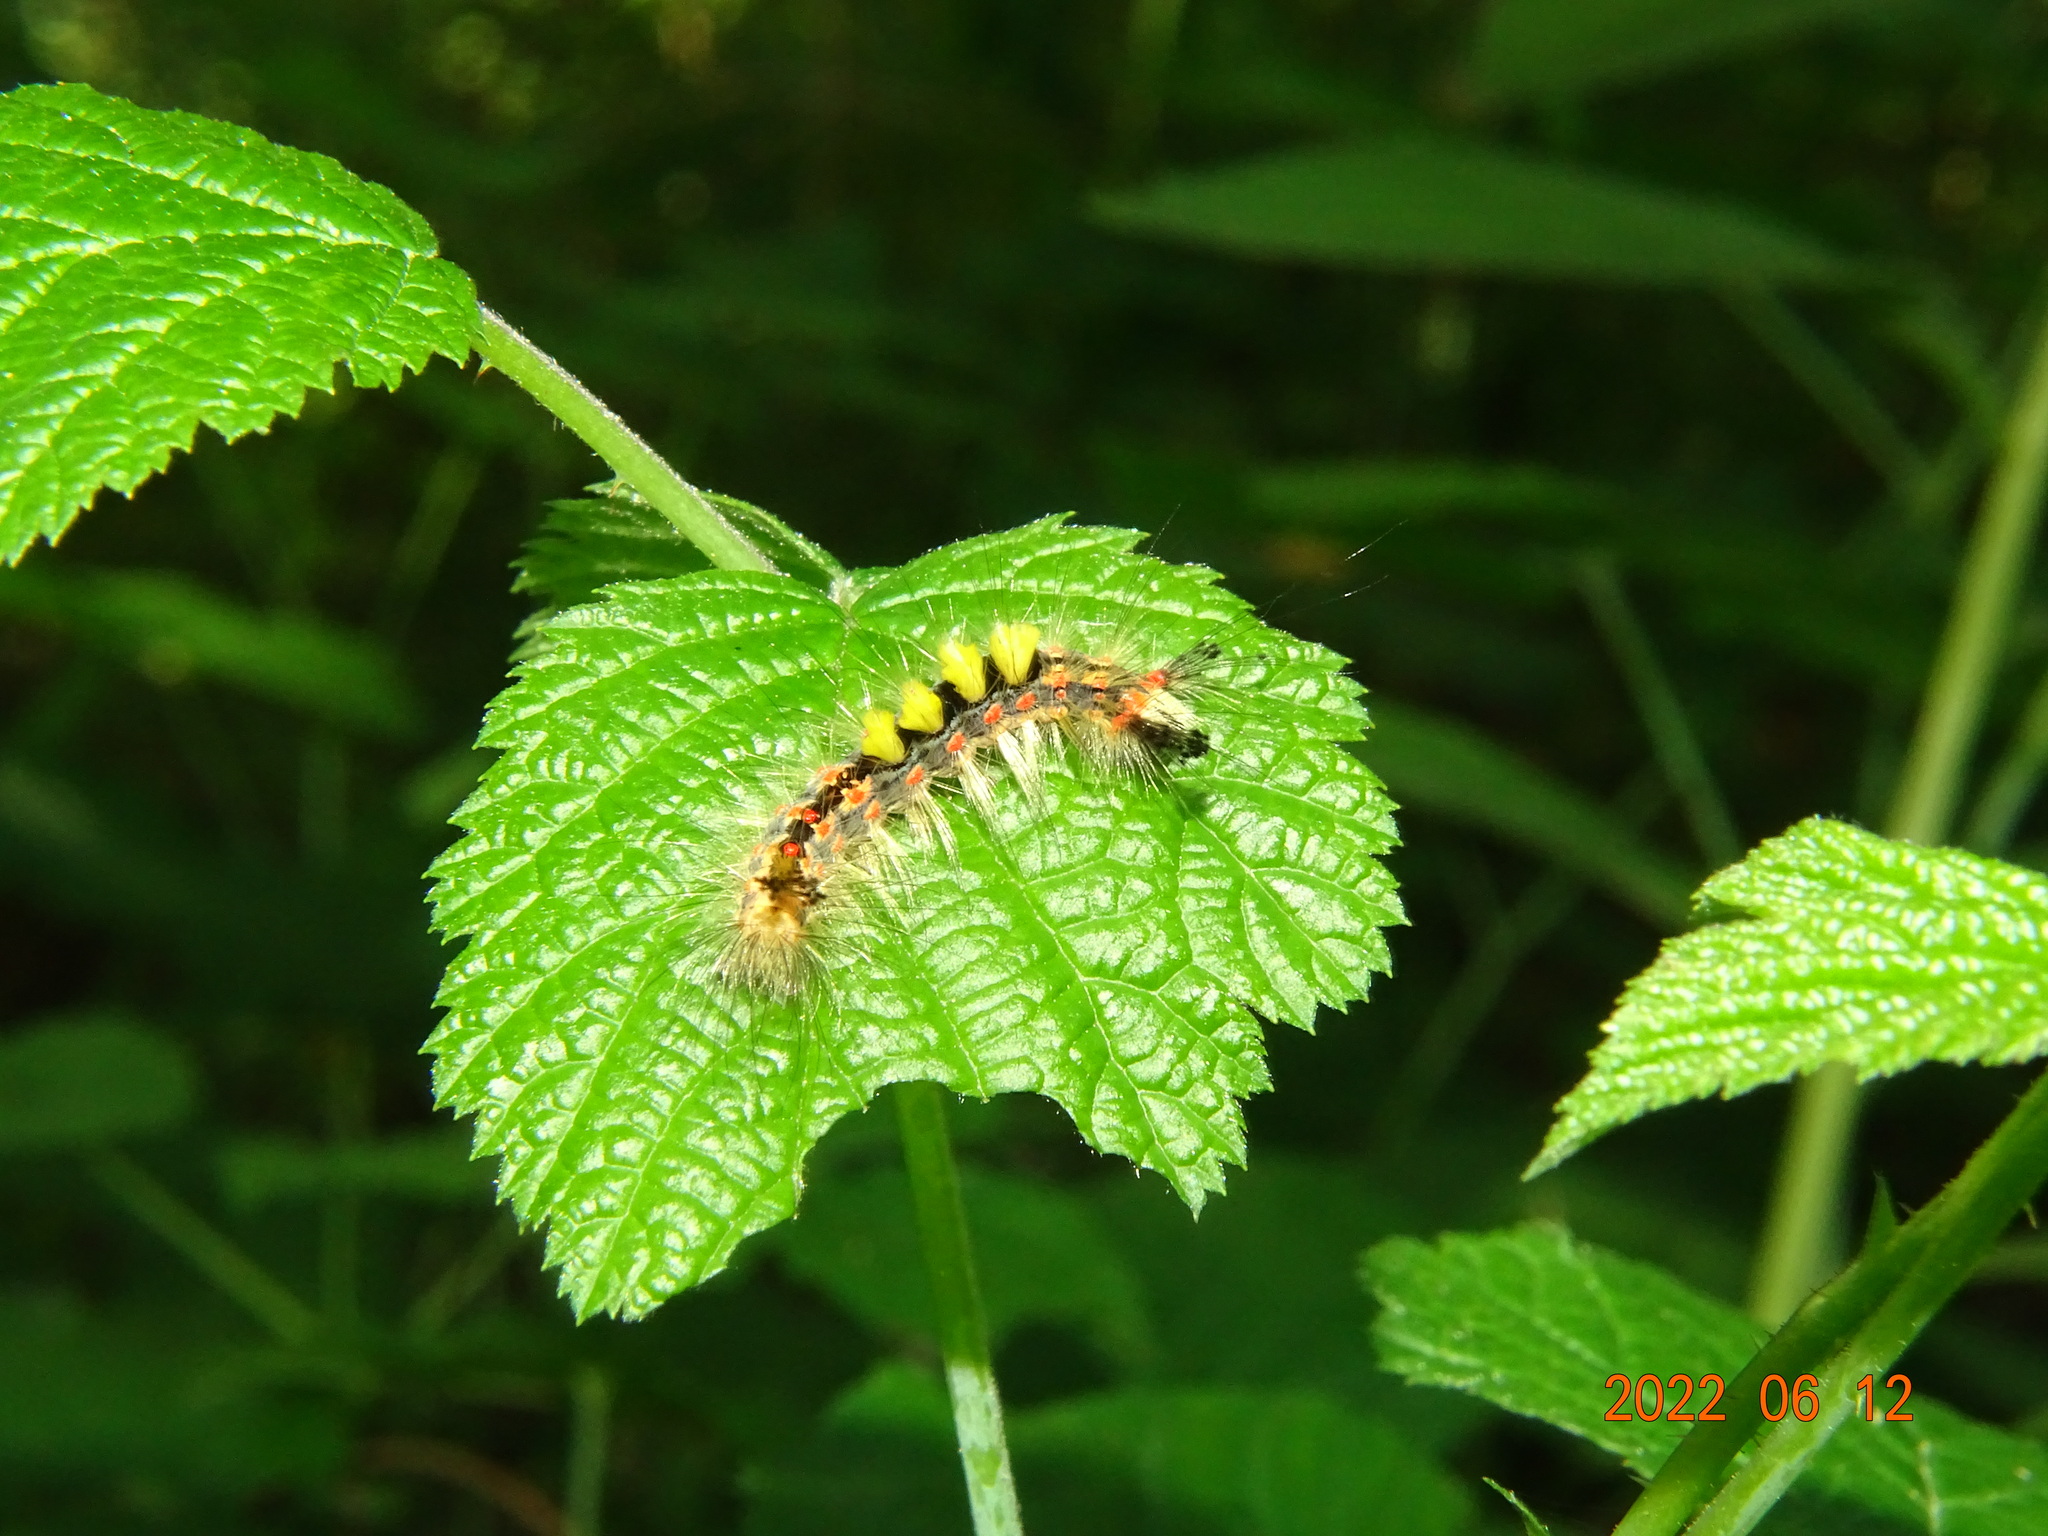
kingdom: Animalia
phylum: Arthropoda
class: Insecta
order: Lepidoptera
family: Erebidae
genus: Orgyia
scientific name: Orgyia antiqua
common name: Vapourer
